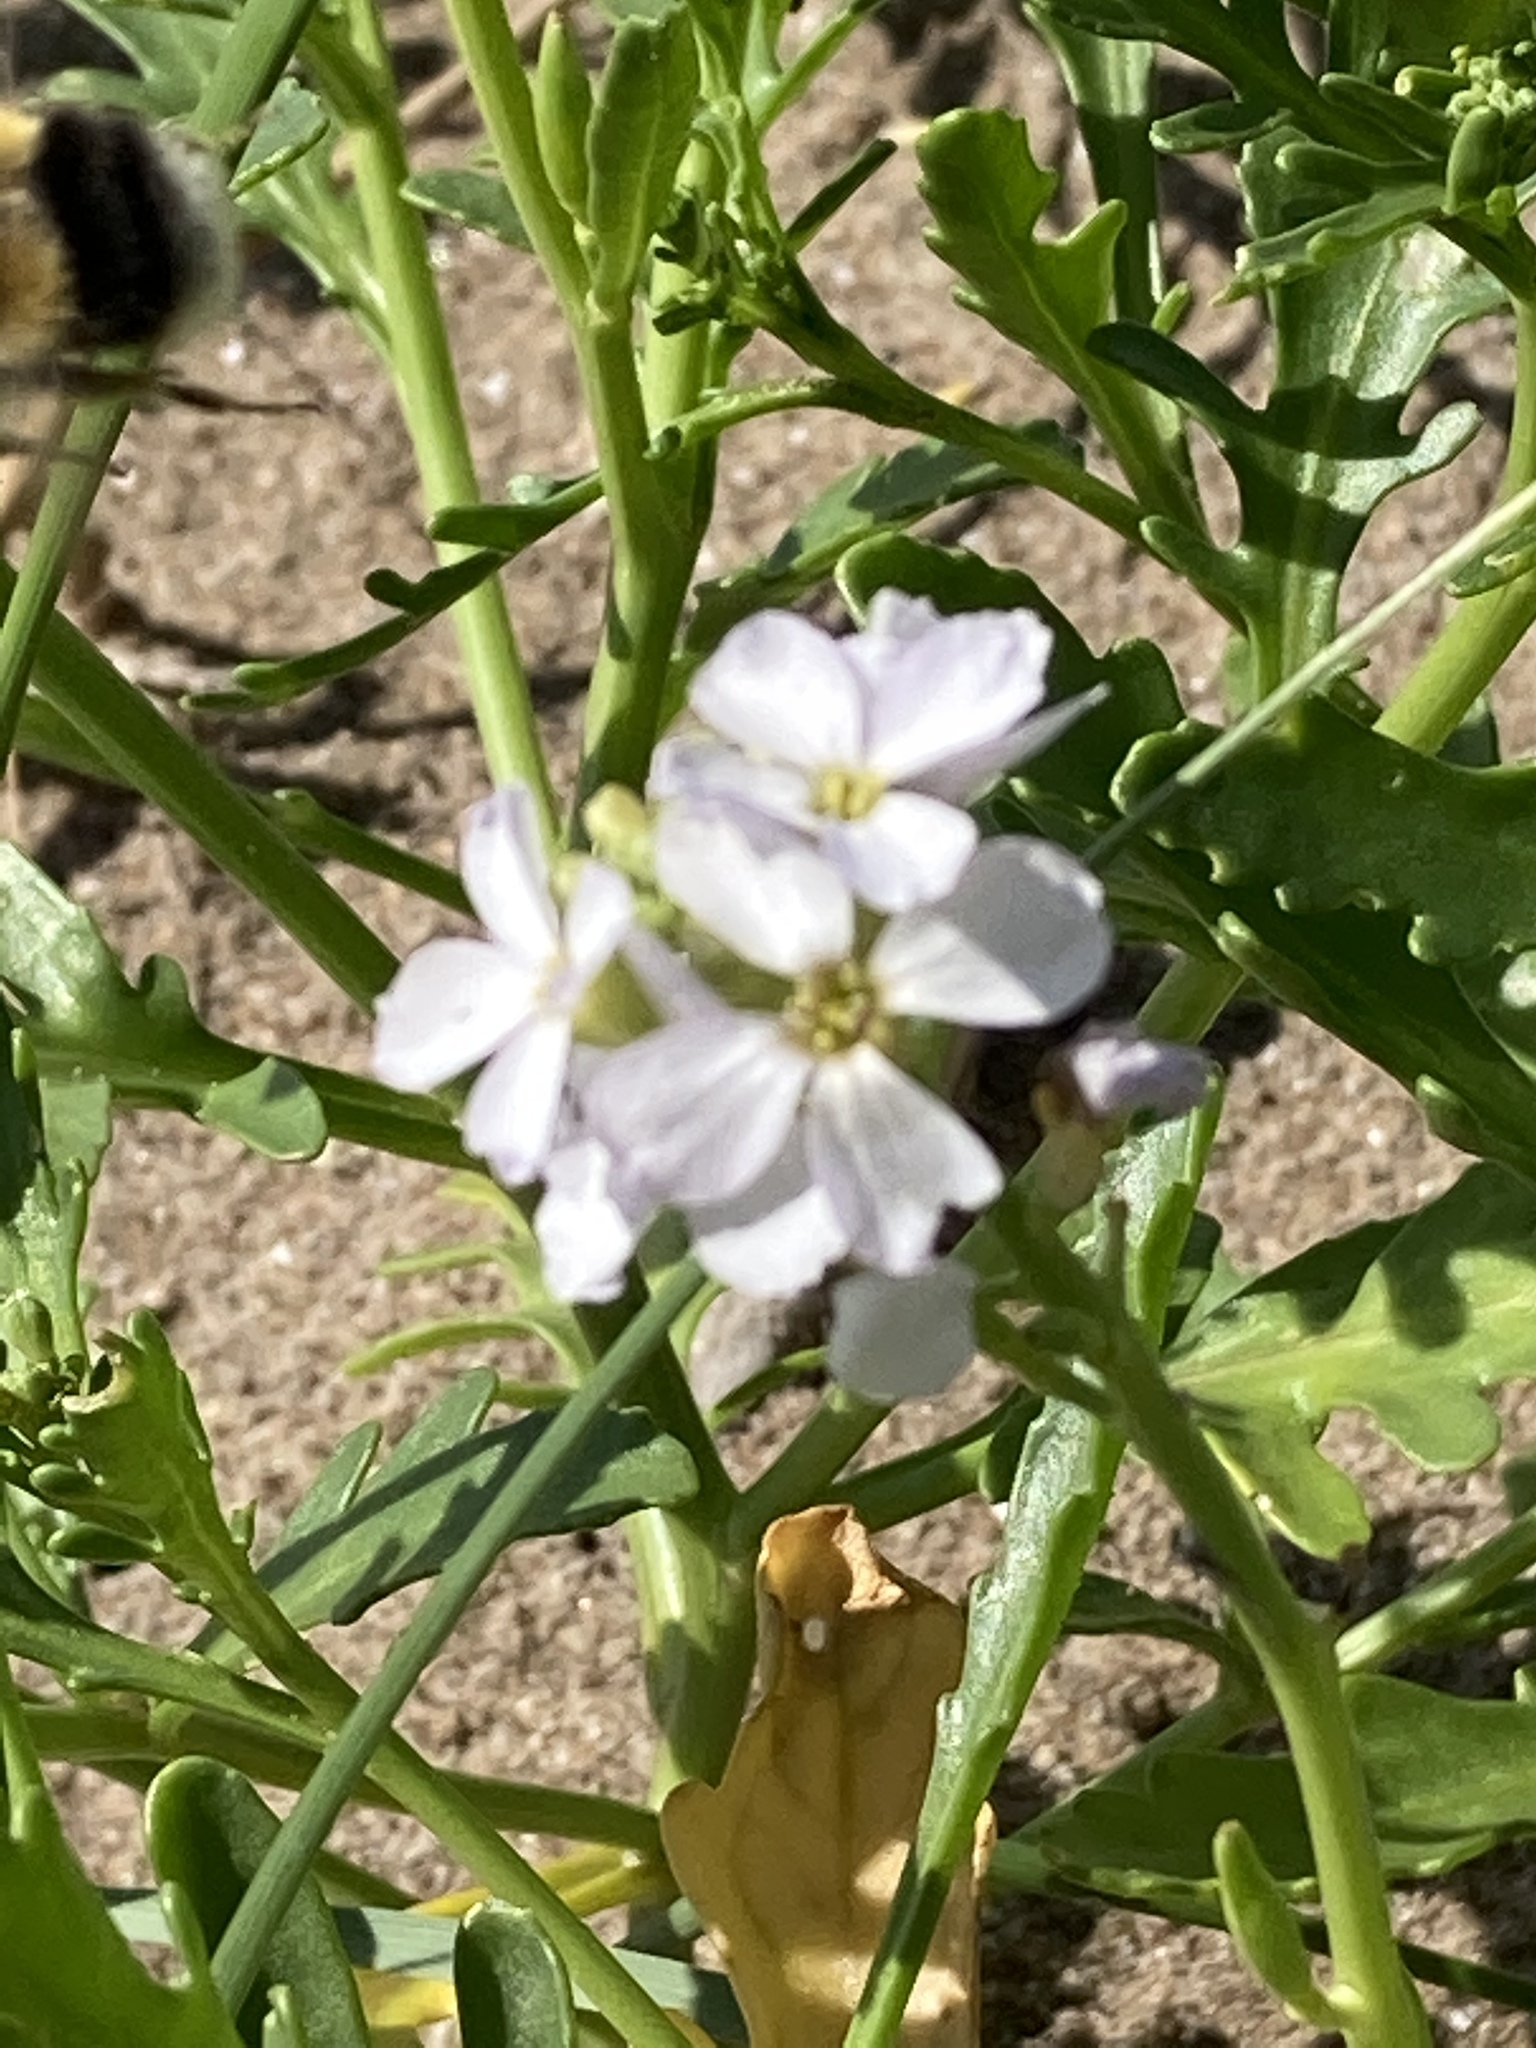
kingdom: Plantae
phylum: Tracheophyta
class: Magnoliopsida
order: Brassicales
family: Brassicaceae
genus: Cakile
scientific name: Cakile maritima
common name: Sea rocket
